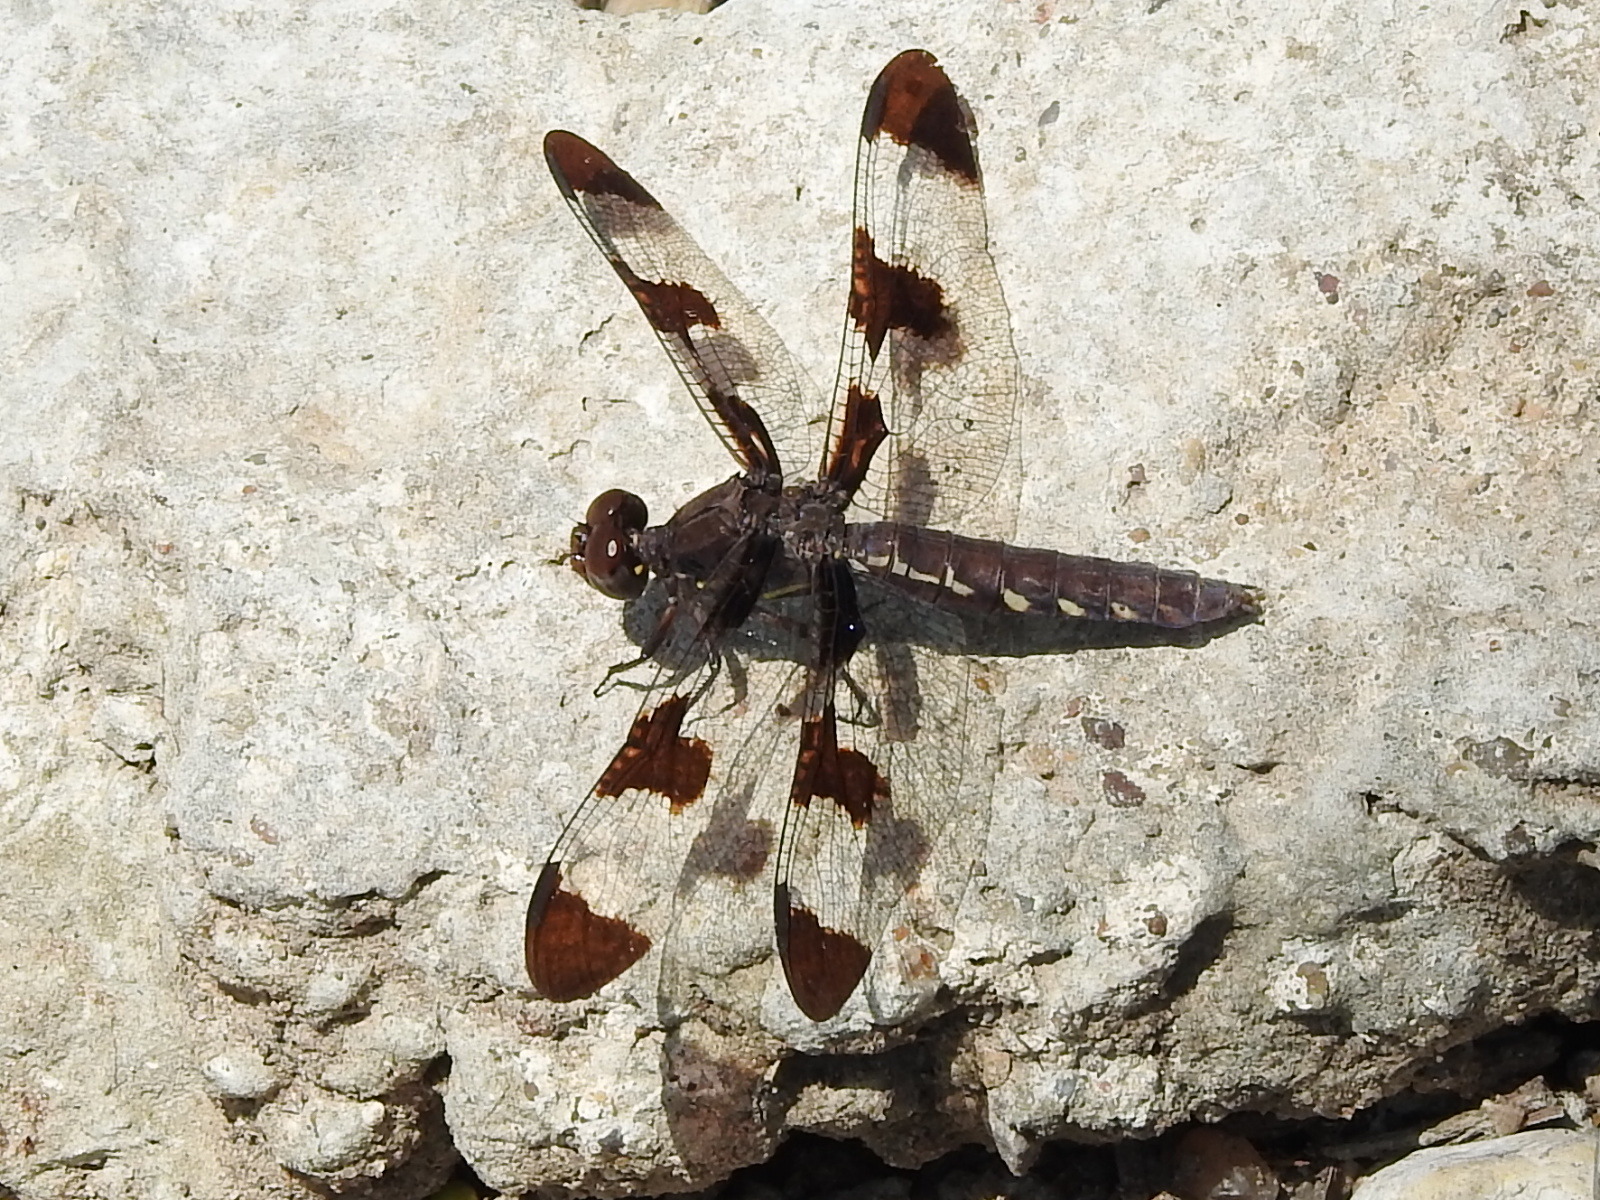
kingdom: Animalia
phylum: Arthropoda
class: Insecta
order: Odonata
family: Libellulidae
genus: Plathemis
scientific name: Plathemis lydia
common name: Common whitetail
